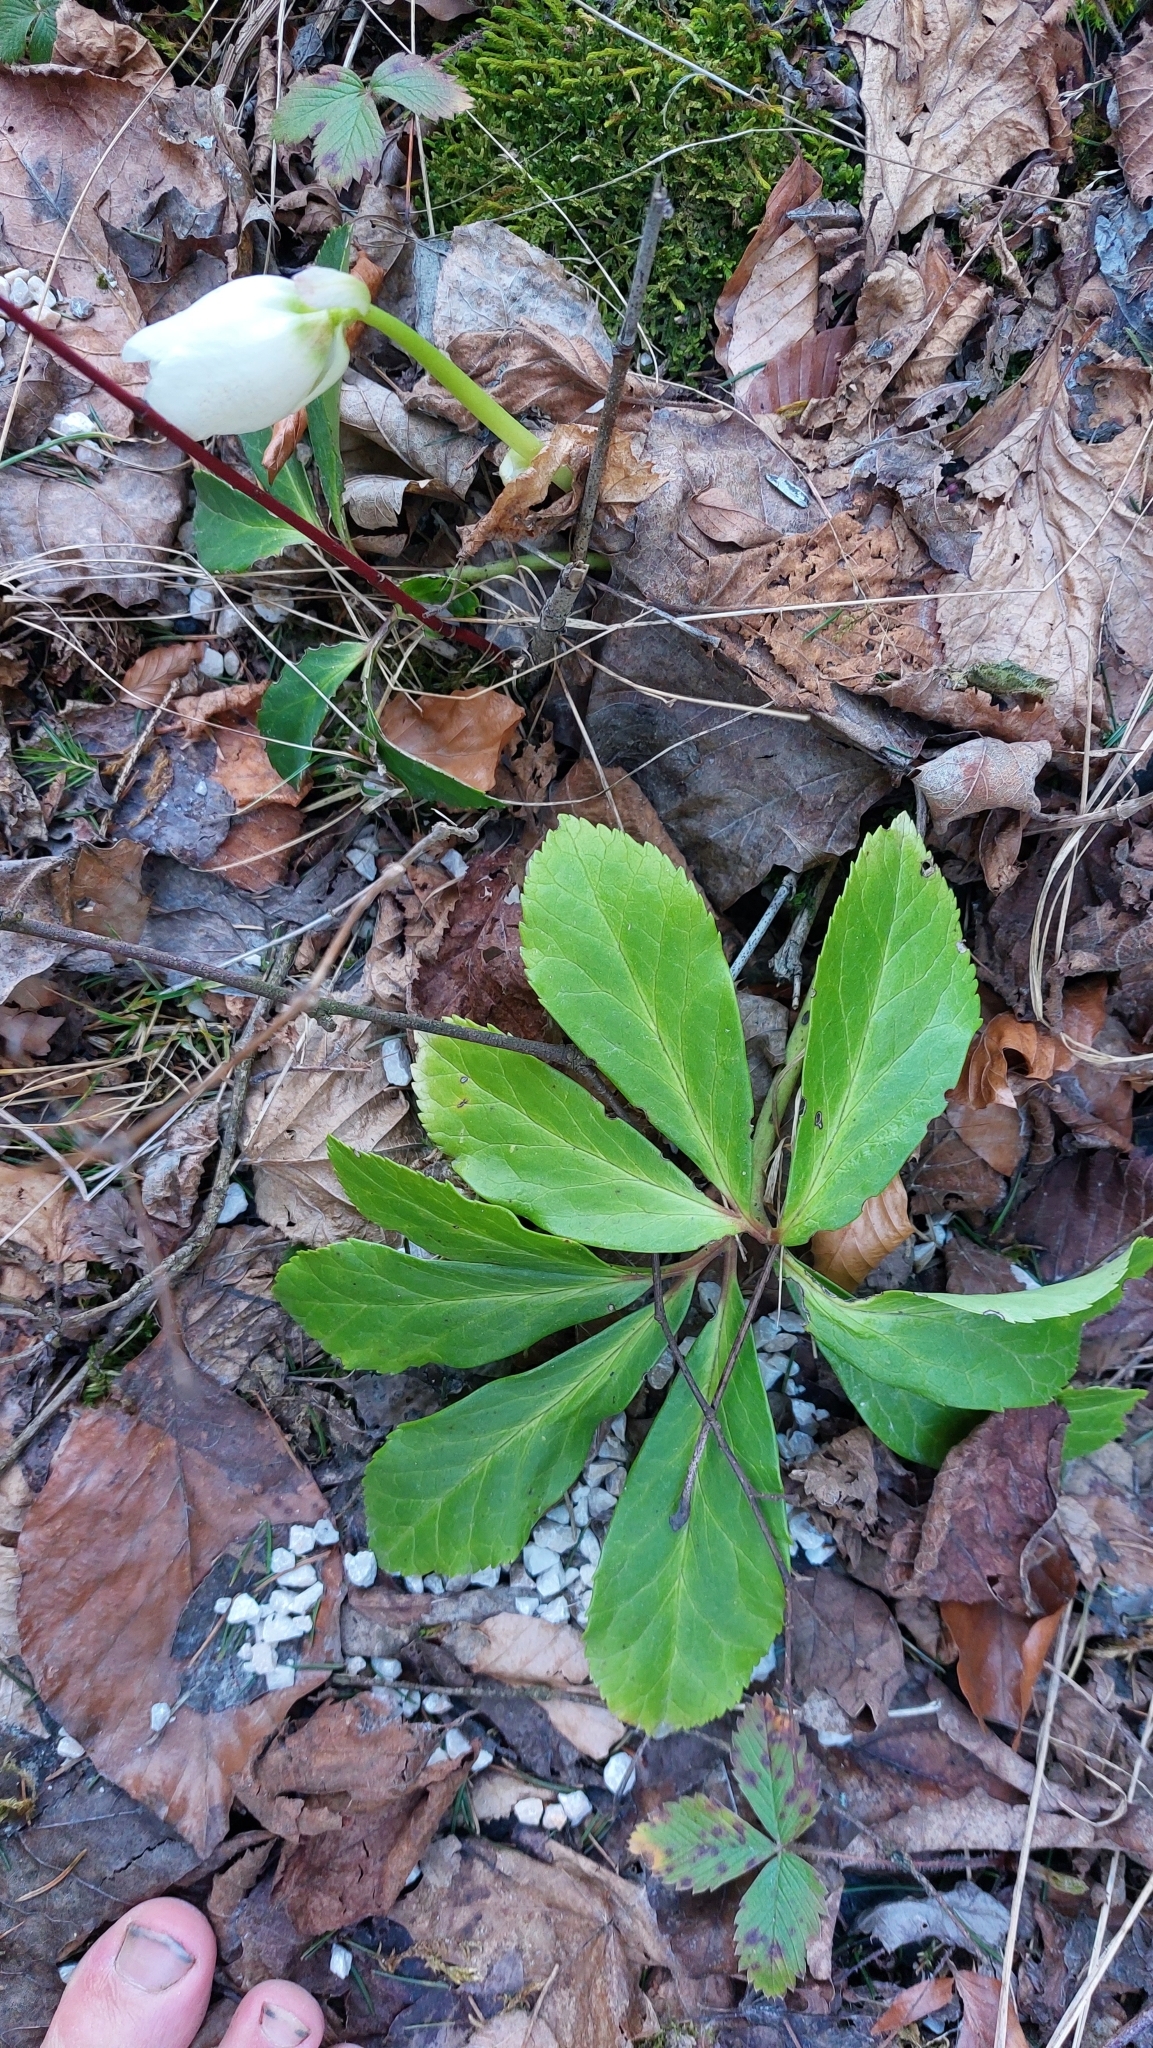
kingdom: Plantae
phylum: Tracheophyta
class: Magnoliopsida
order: Ranunculales
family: Ranunculaceae
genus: Helleborus
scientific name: Helleborus niger
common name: Black hellebore
